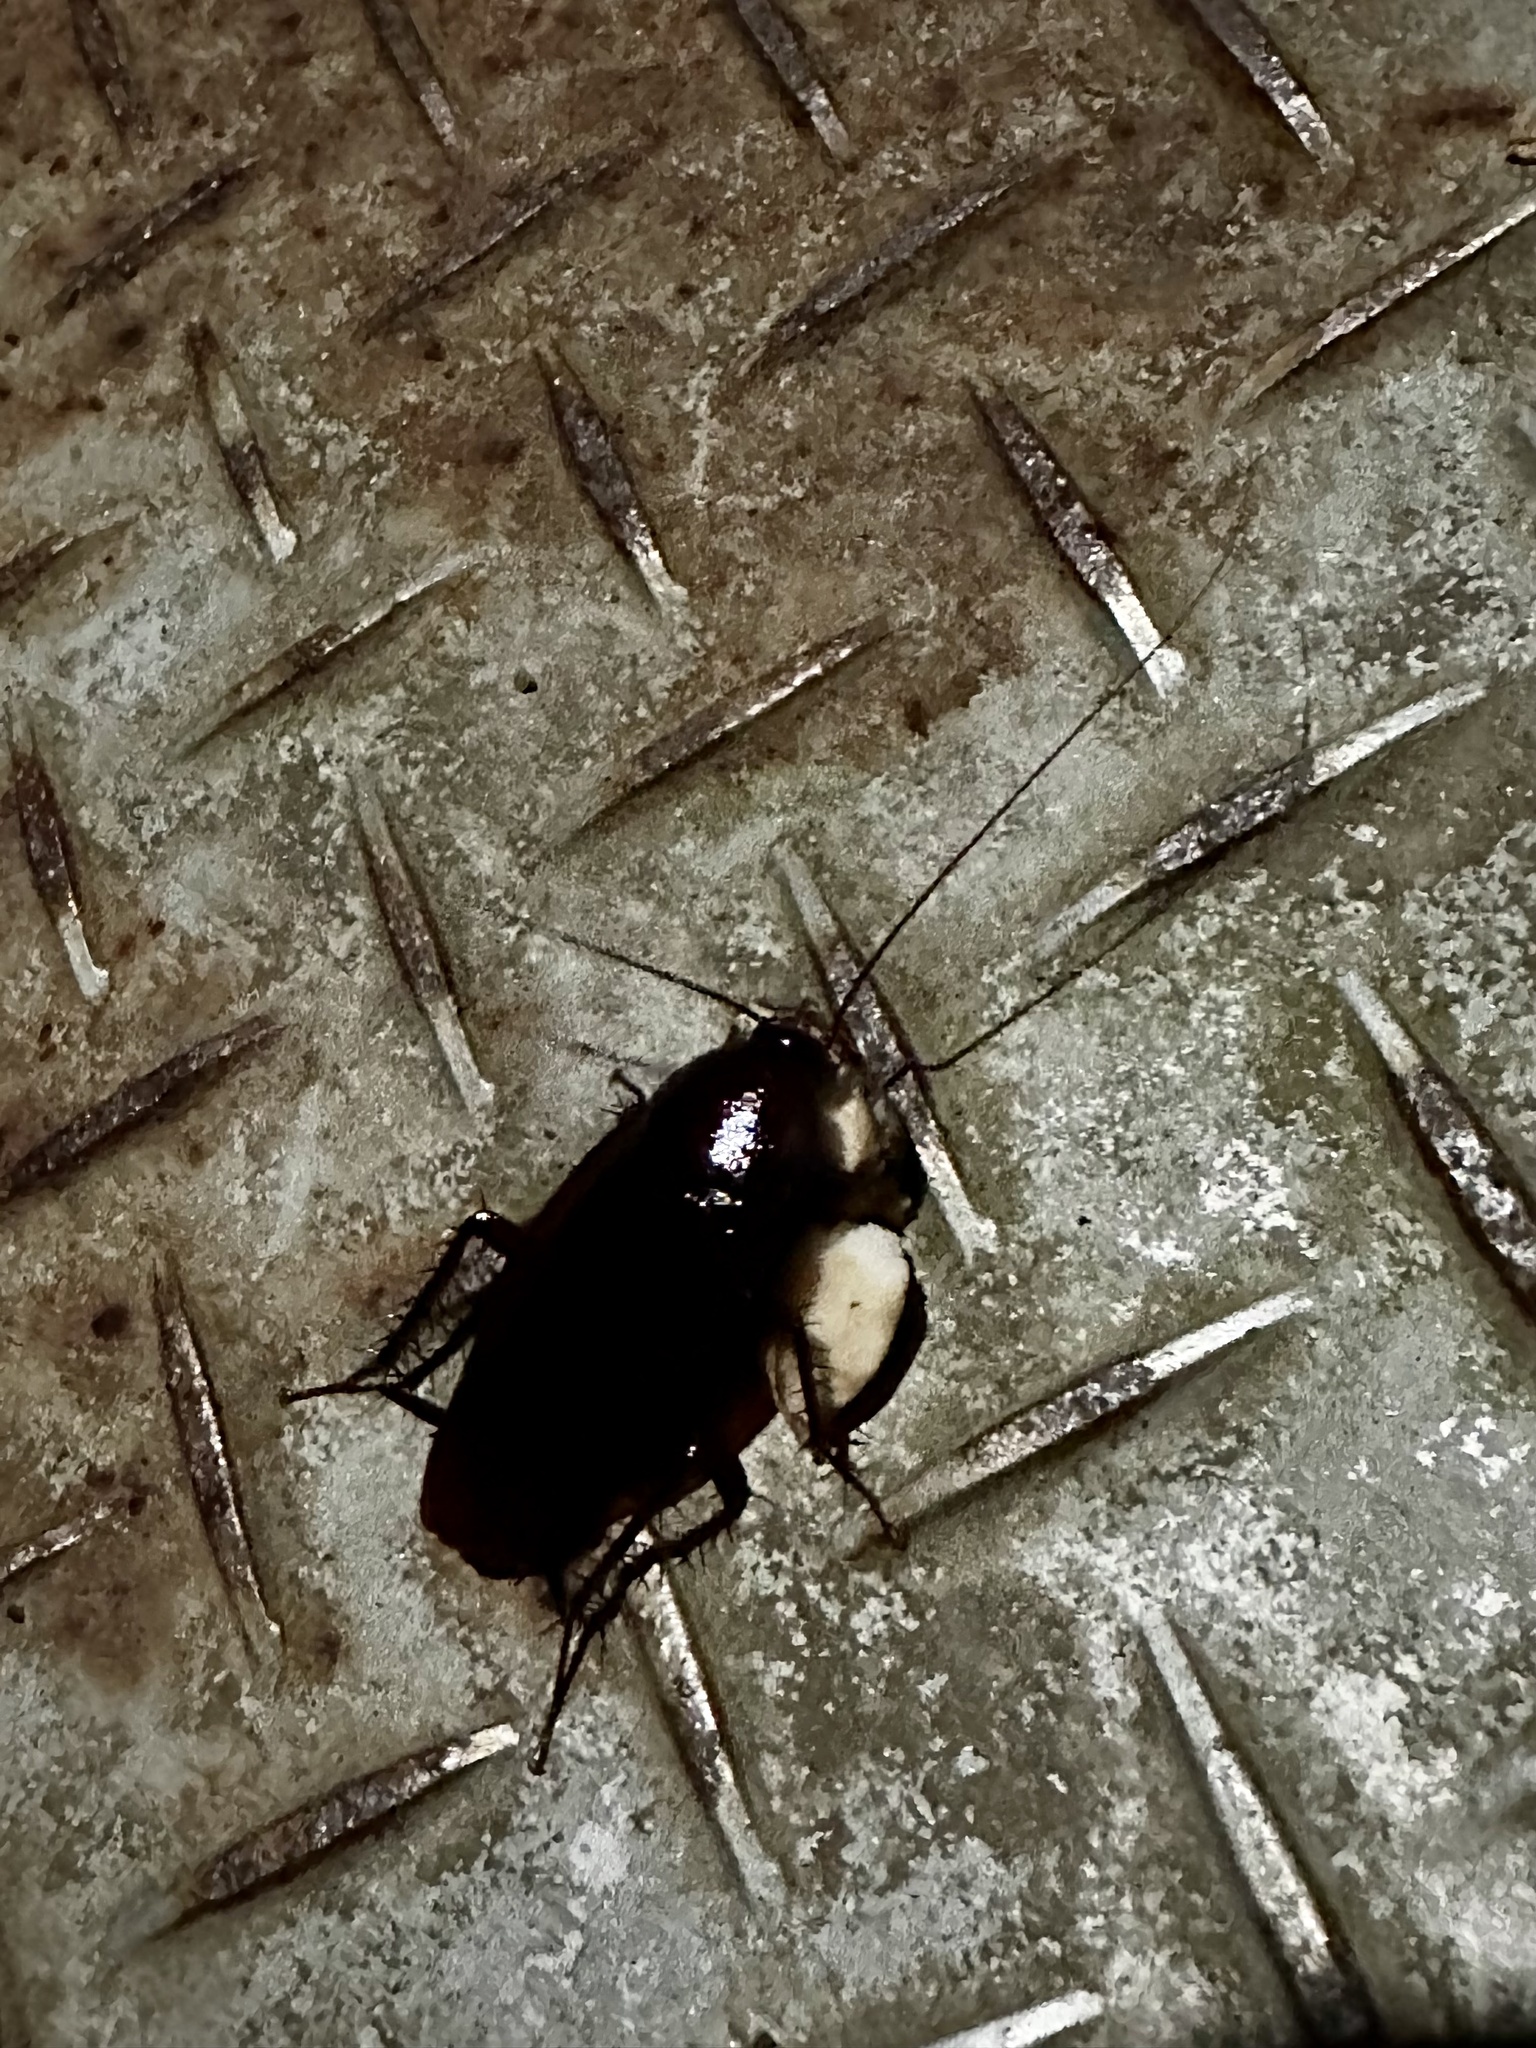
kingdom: Animalia
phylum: Arthropoda
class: Insecta
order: Blattodea
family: Blattidae
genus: Periplaneta
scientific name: Periplaneta fuliginosa
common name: Smokeybrown cockroad
